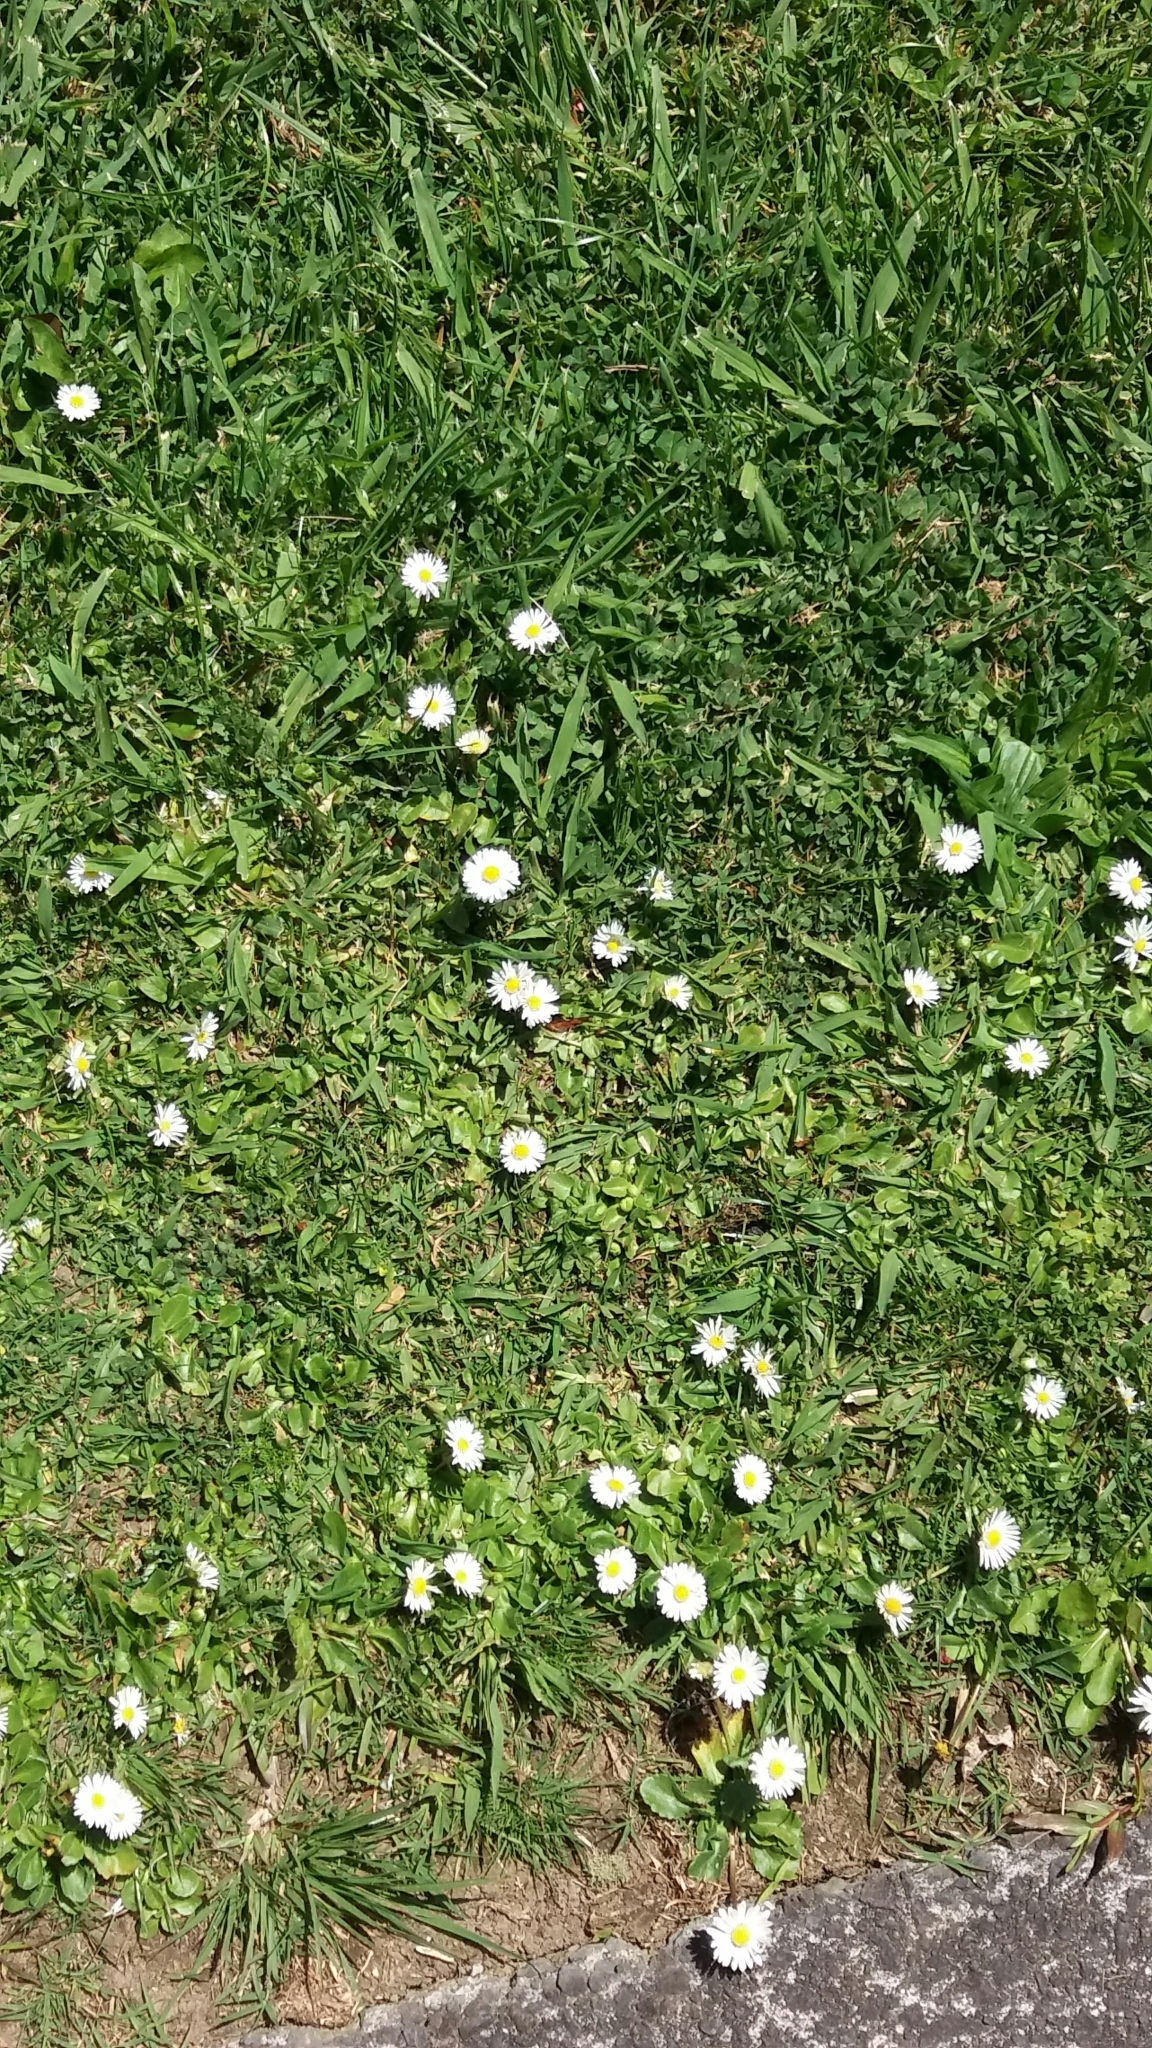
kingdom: Plantae
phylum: Tracheophyta
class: Magnoliopsida
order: Asterales
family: Asteraceae
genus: Bellis
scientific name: Bellis perennis
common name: Lawndaisy
